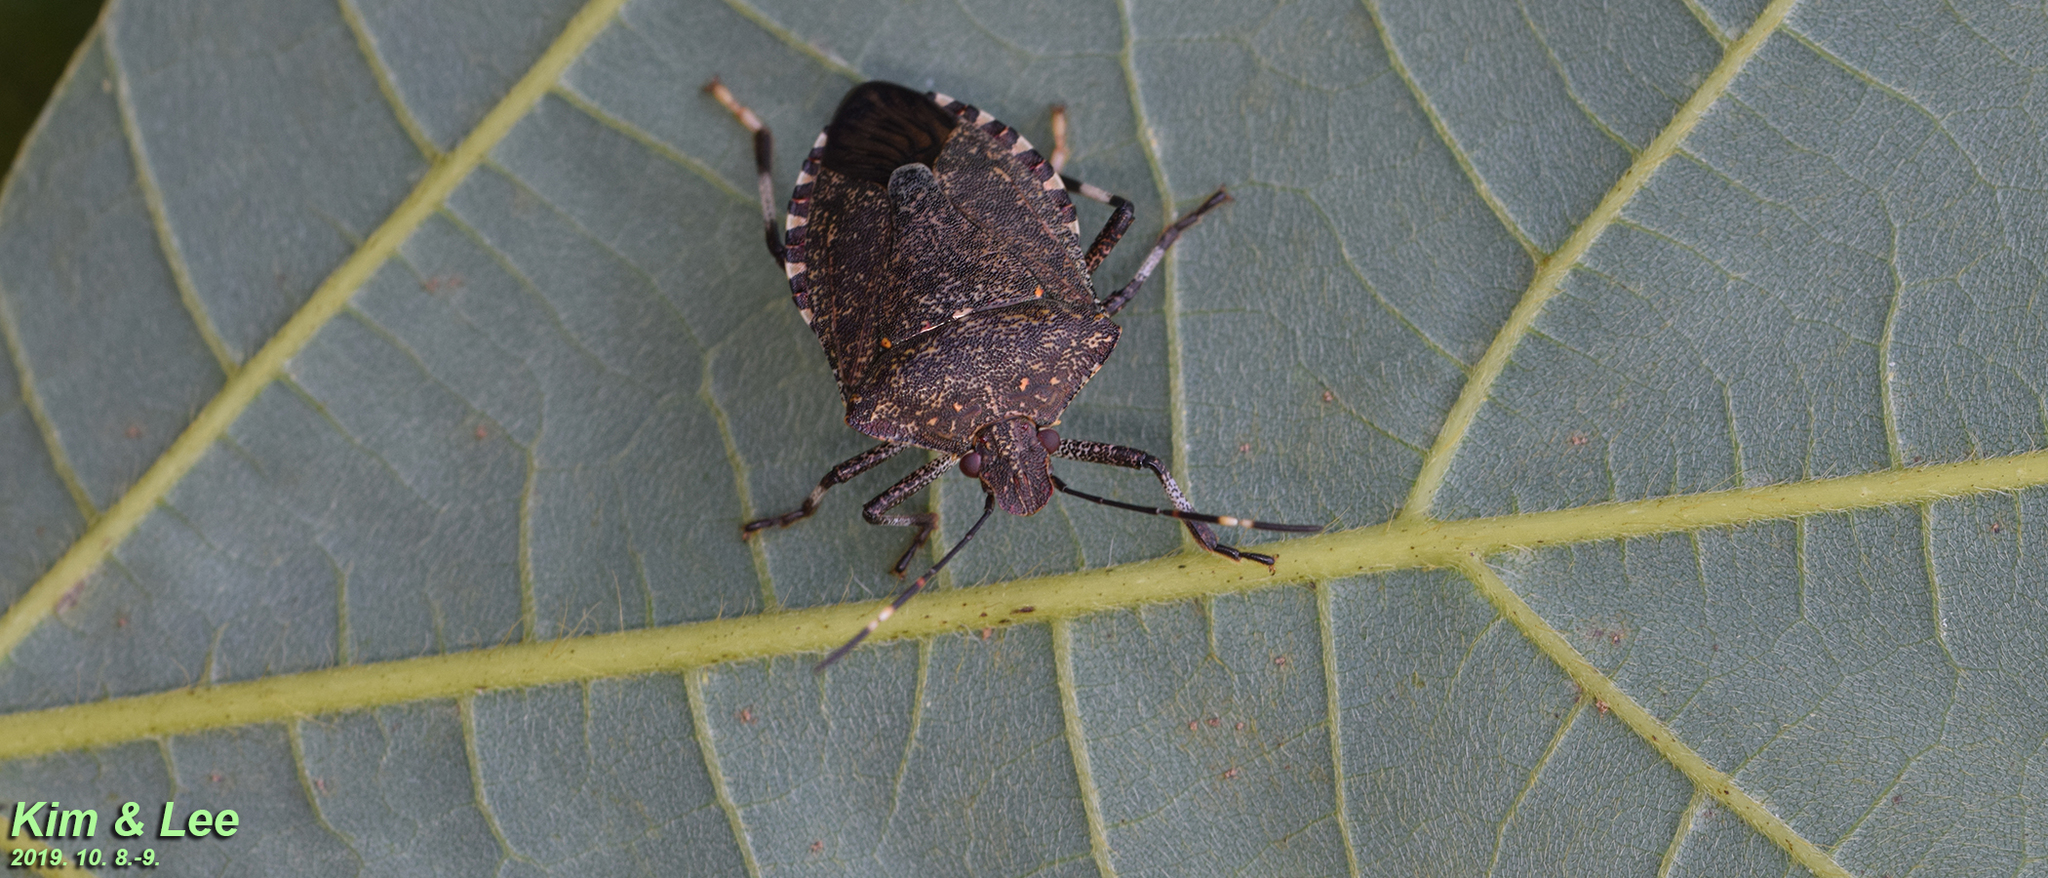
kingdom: Animalia
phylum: Arthropoda
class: Insecta
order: Hemiptera
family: Pentatomidae
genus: Halyomorpha
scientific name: Halyomorpha halys
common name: Brown marmorated stink bug
